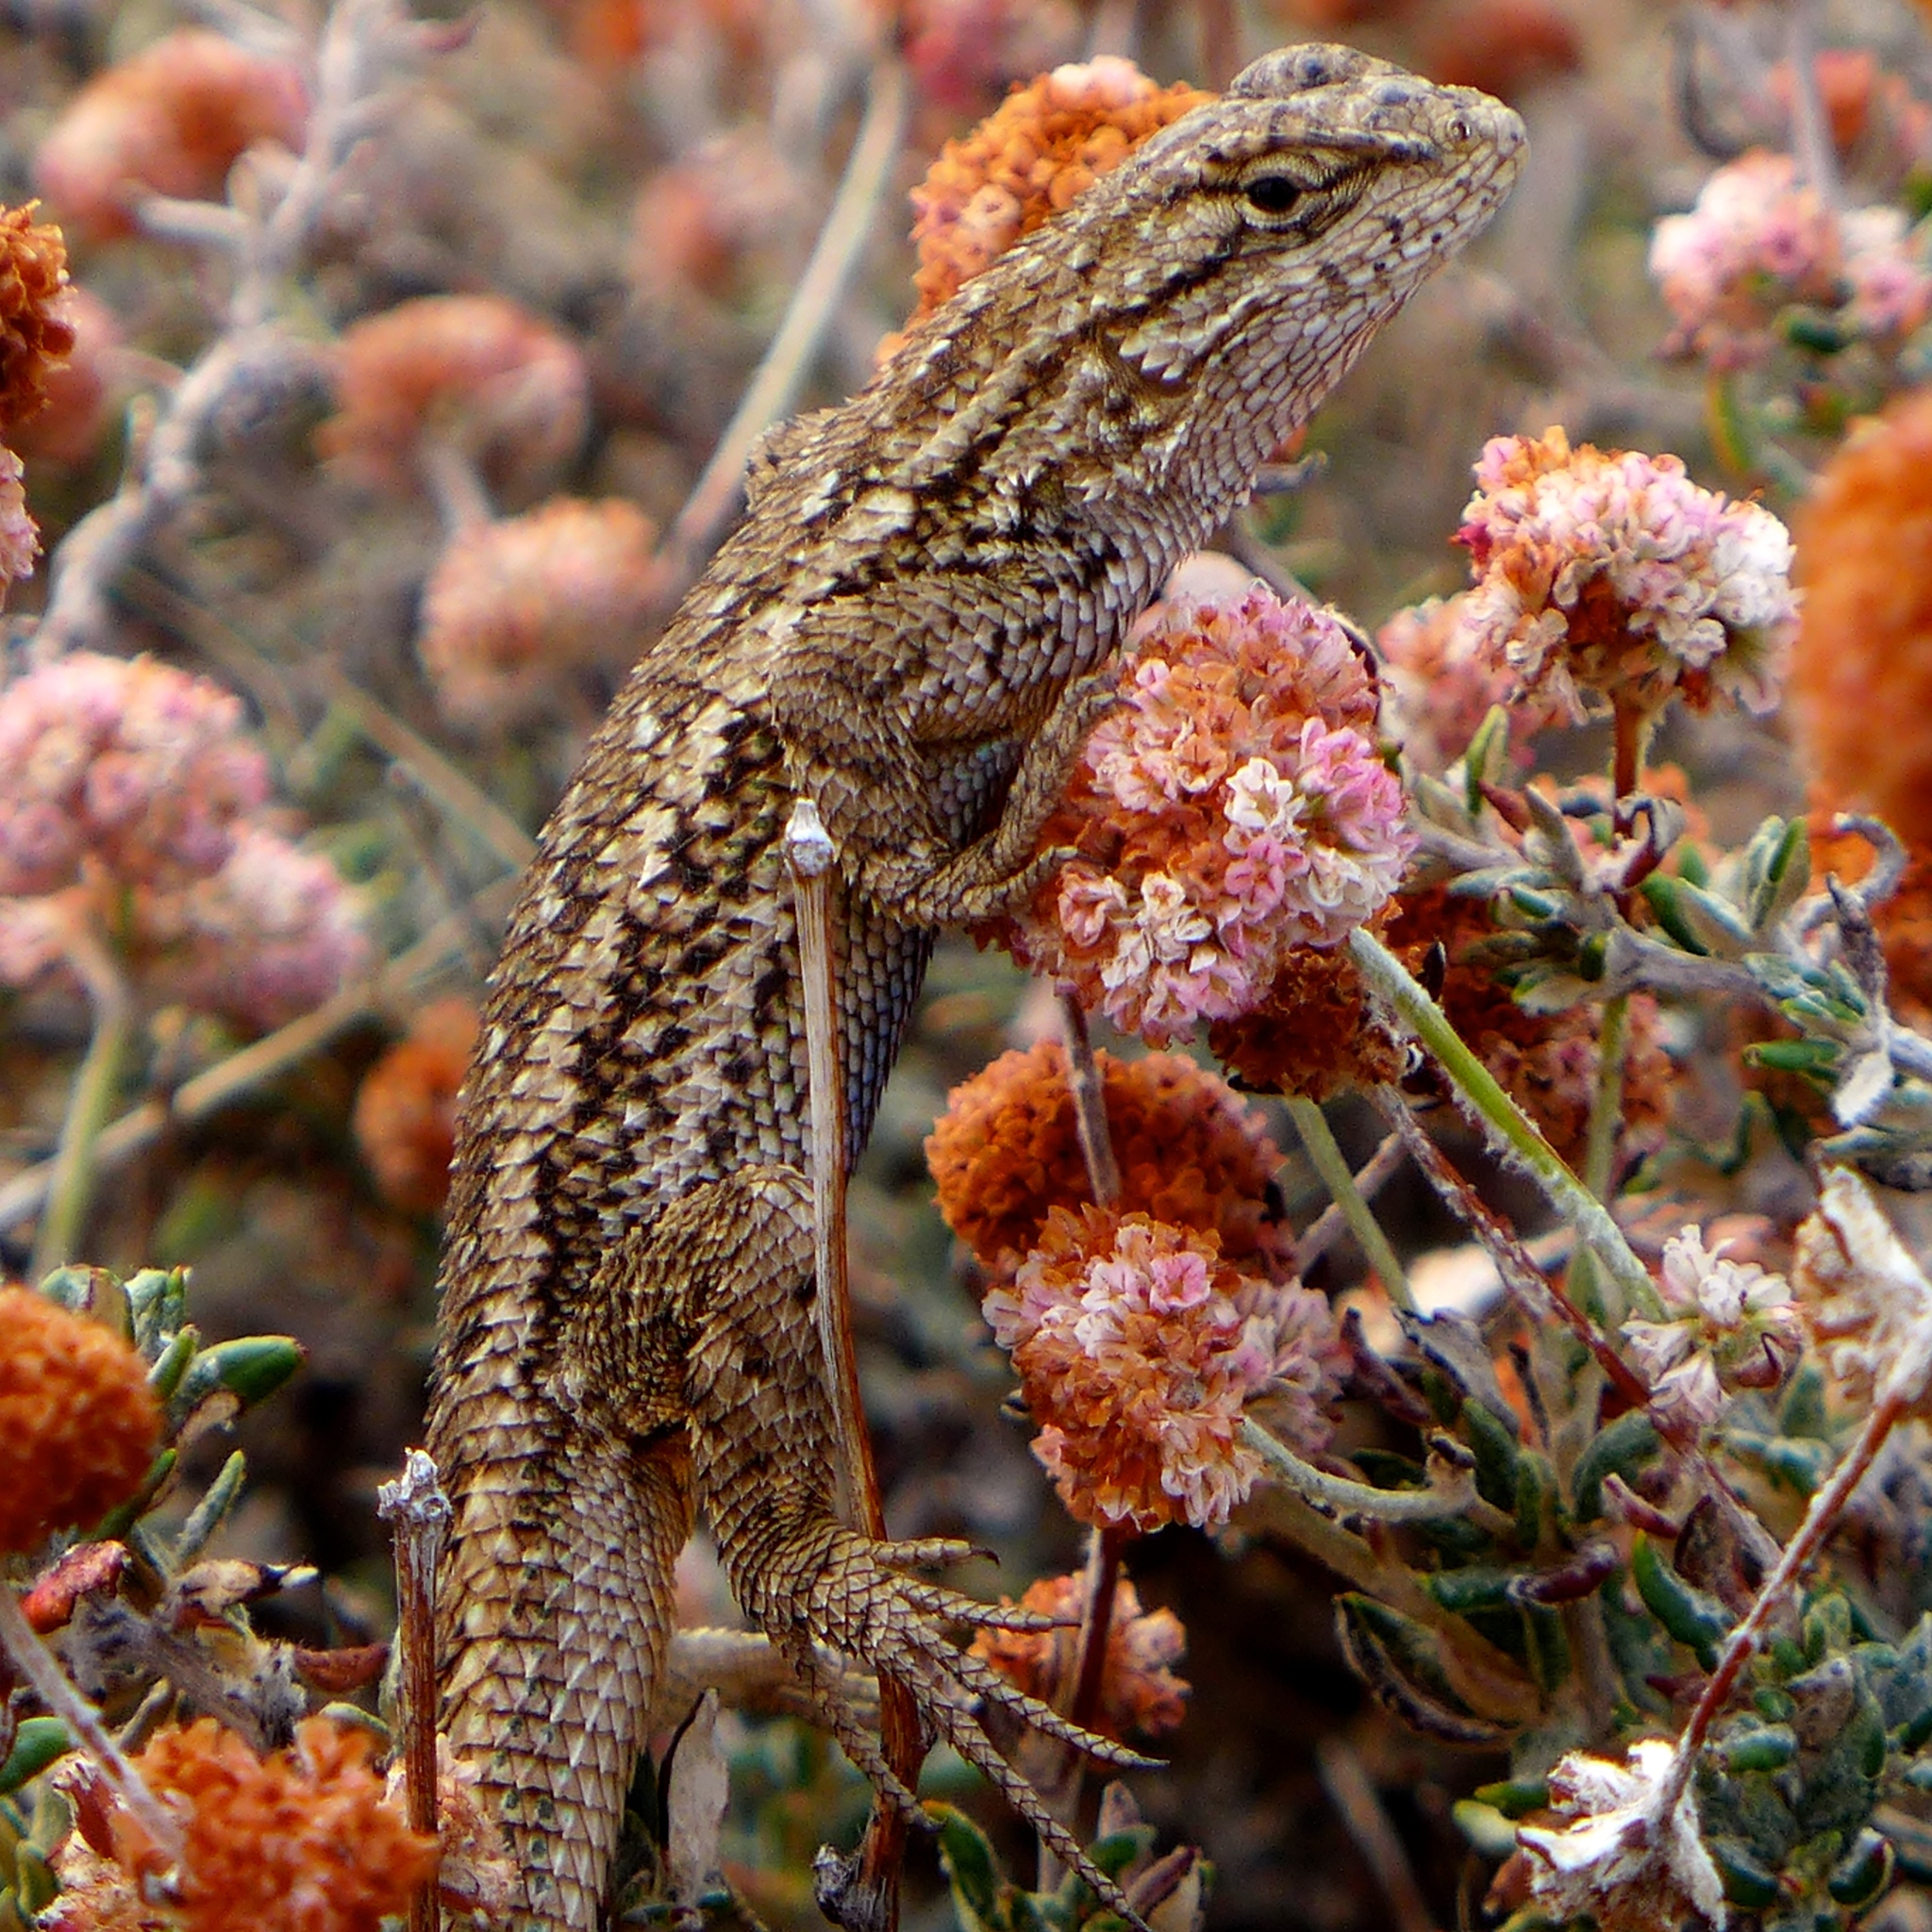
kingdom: Animalia
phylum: Chordata
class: Squamata
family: Phrynosomatidae
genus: Sceloporus
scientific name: Sceloporus occidentalis
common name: Western fence lizard
